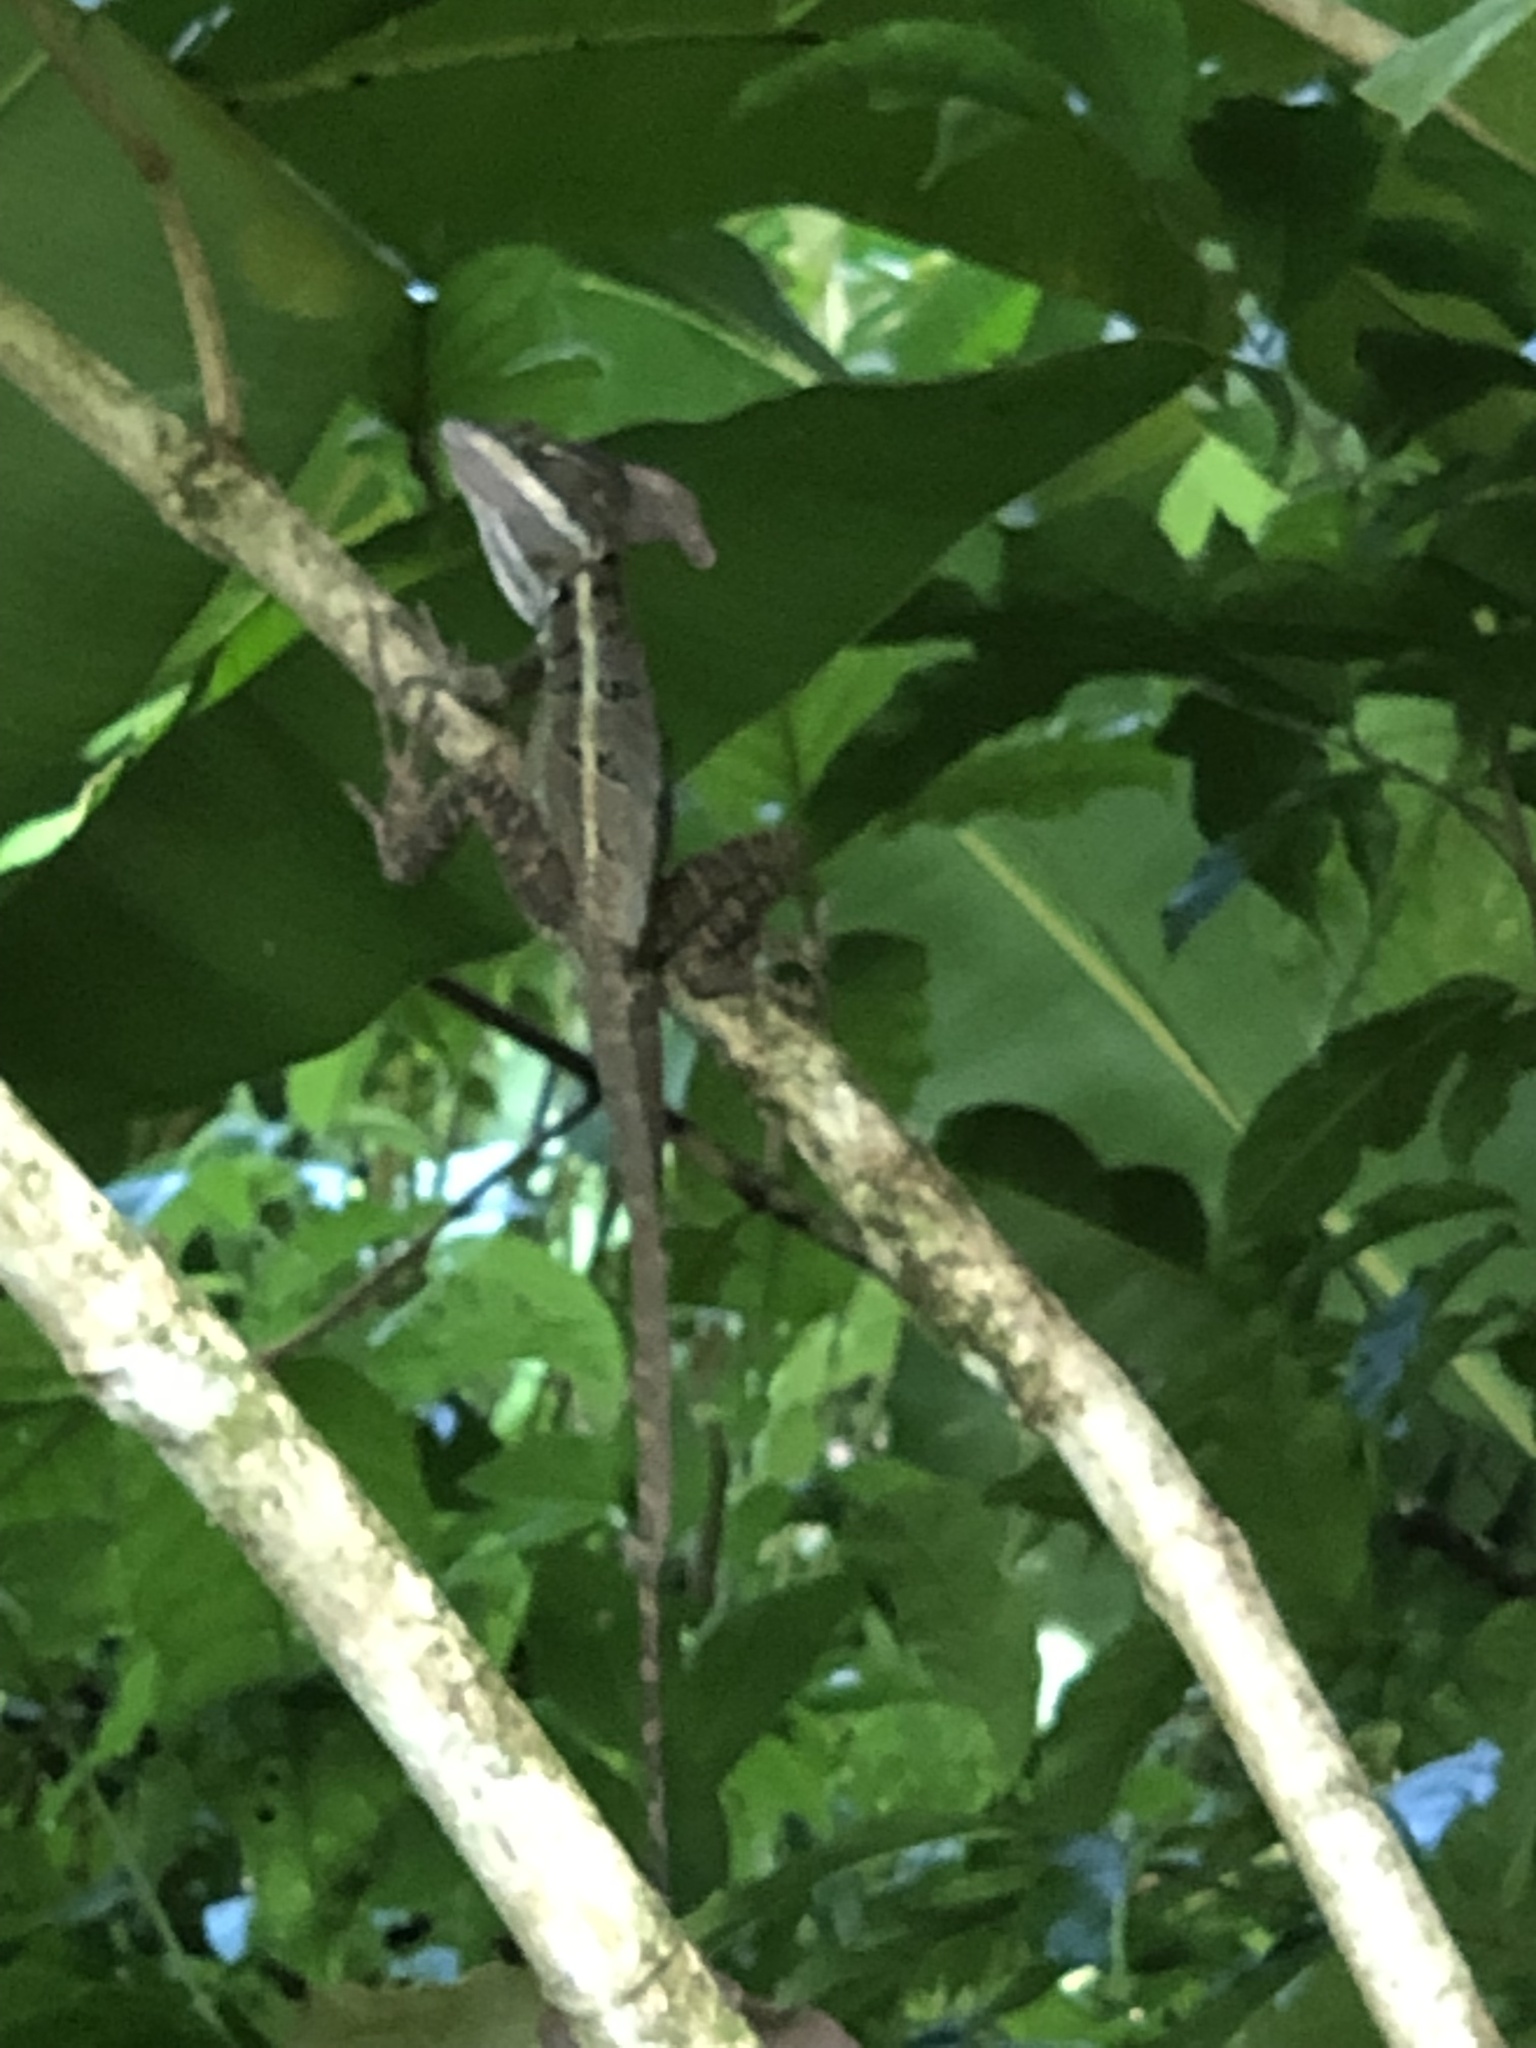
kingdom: Animalia
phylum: Chordata
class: Squamata
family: Corytophanidae
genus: Basiliscus
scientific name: Basiliscus basiliscus
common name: Common basilisk
